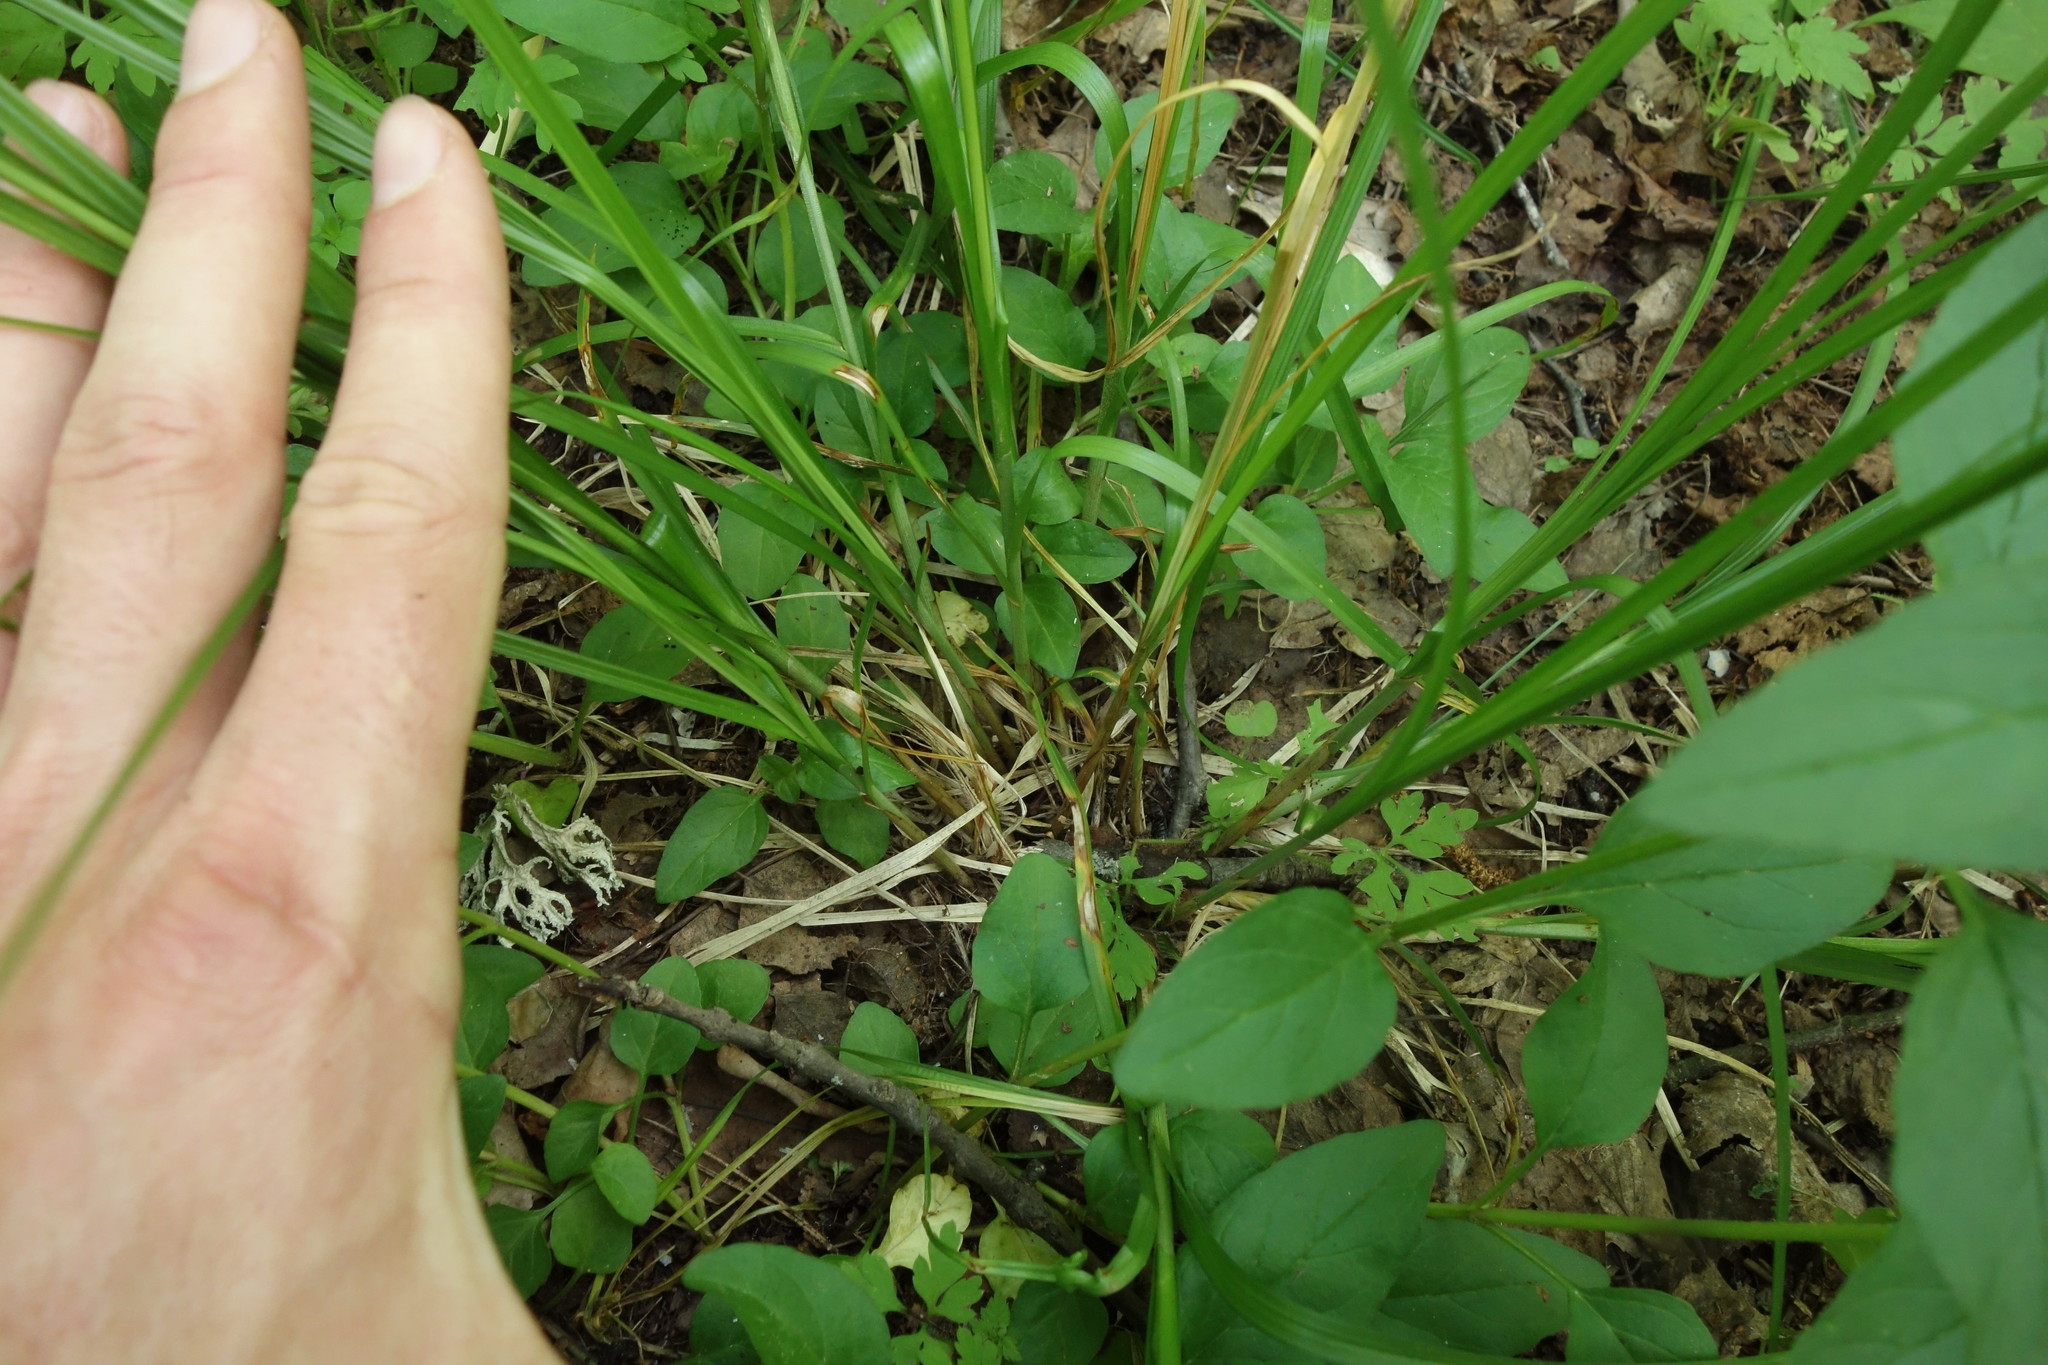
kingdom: Plantae
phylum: Tracheophyta
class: Liliopsida
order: Poales
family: Cyperaceae
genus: Carex
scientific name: Carex muricata
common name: Rough sedge
